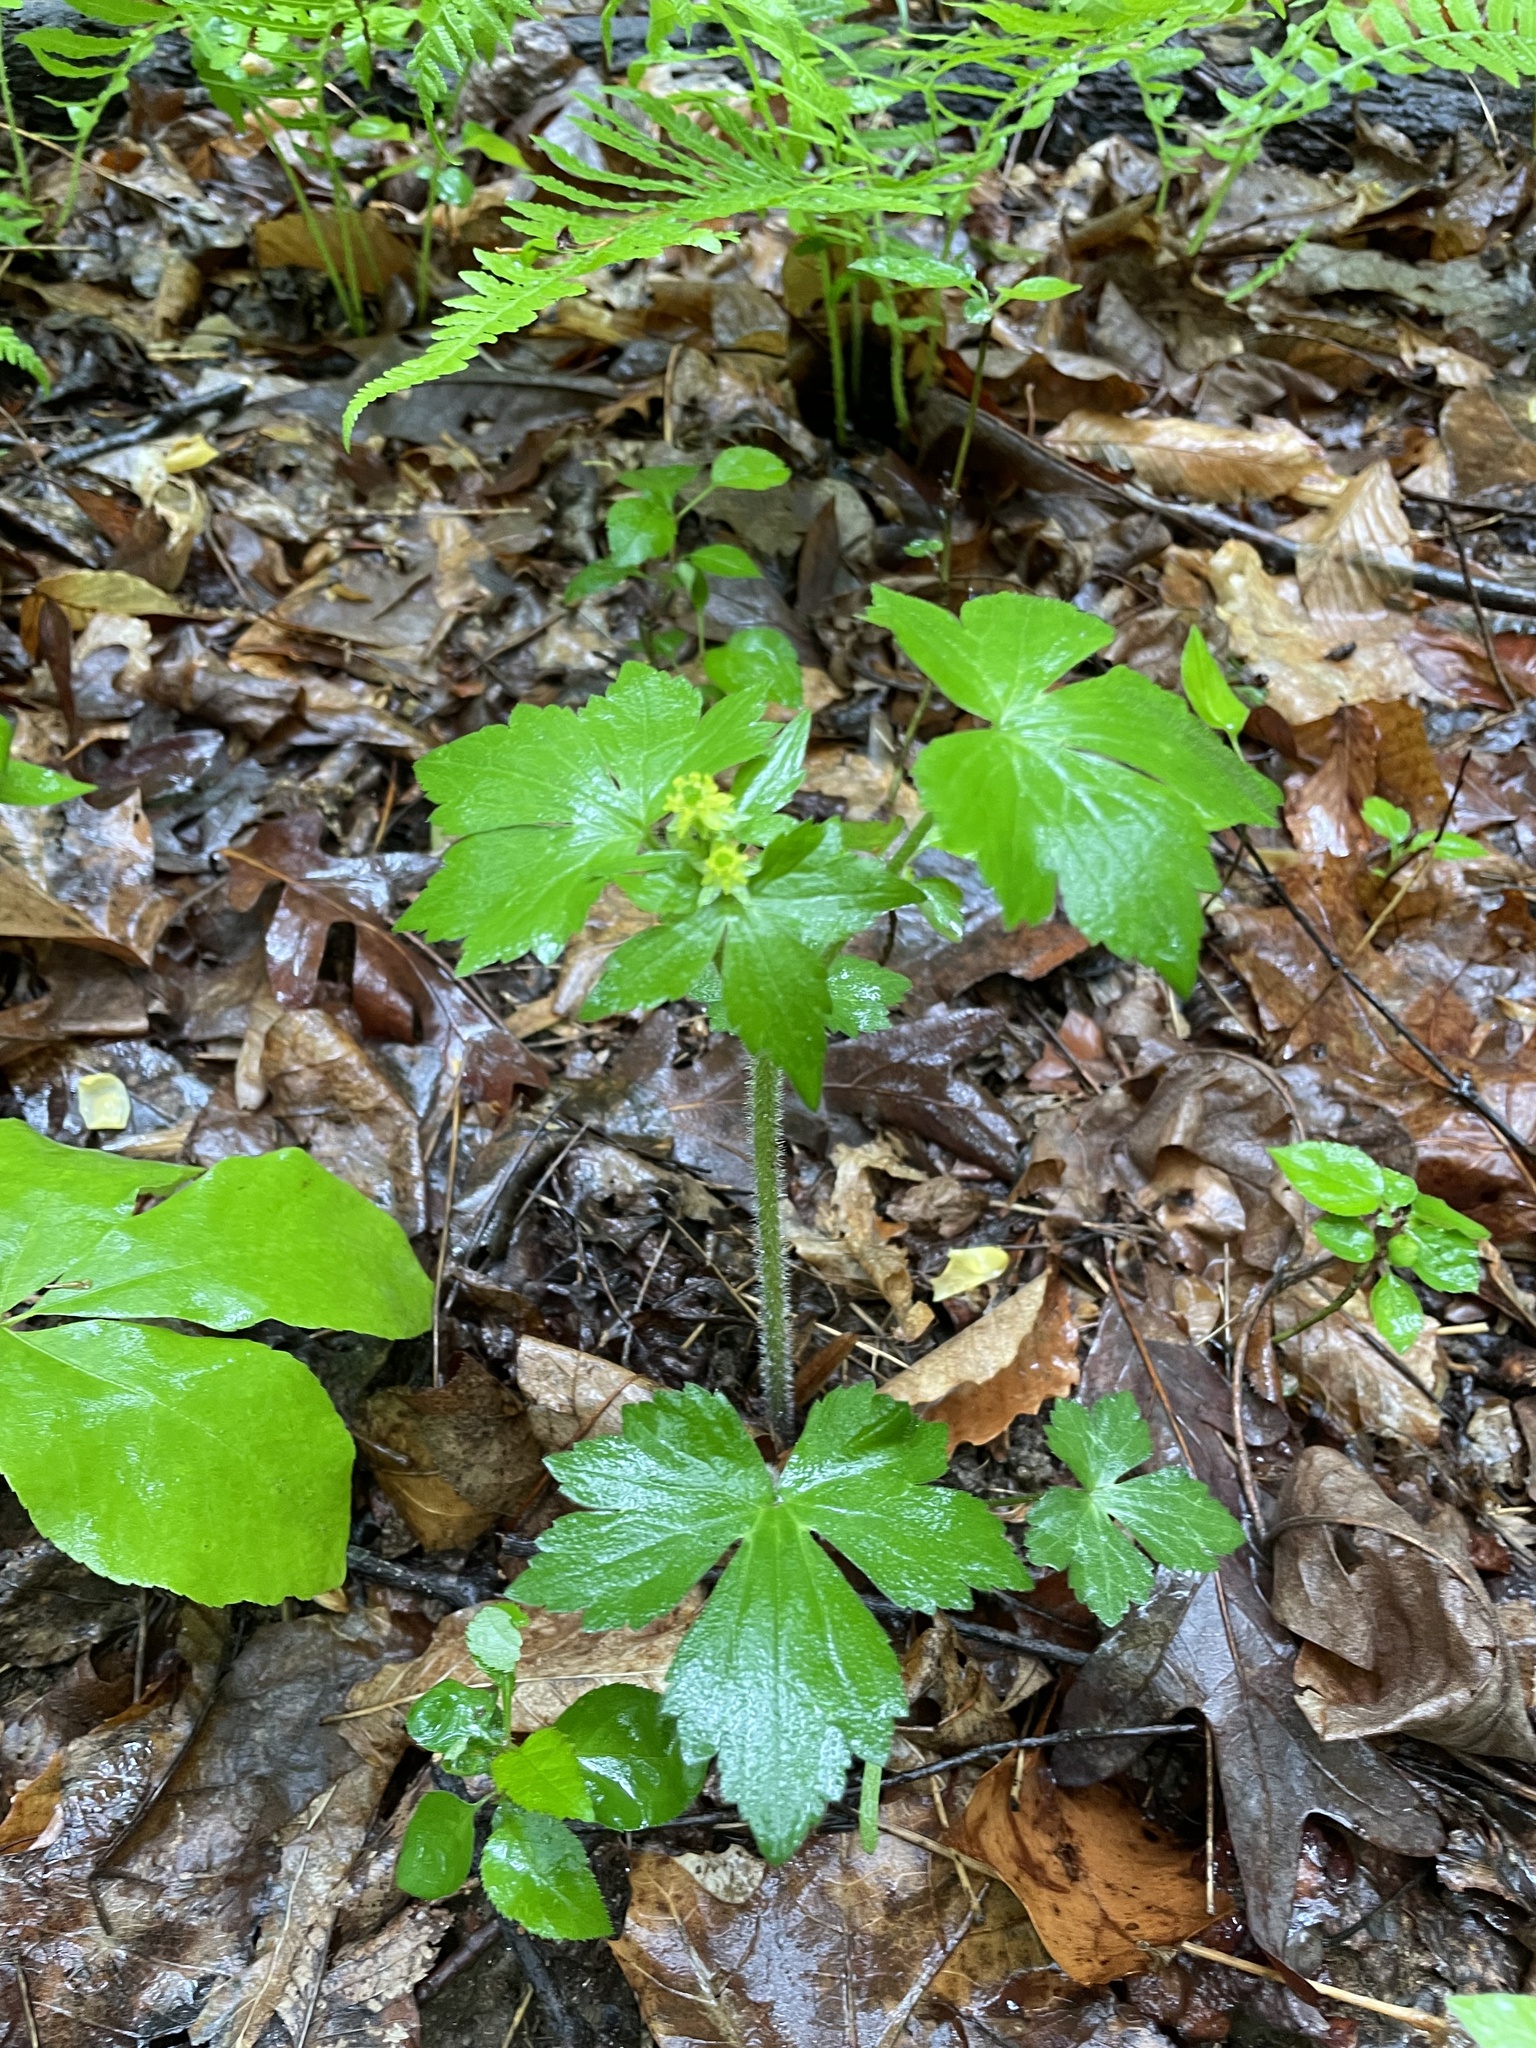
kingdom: Plantae
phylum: Tracheophyta
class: Magnoliopsida
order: Ranunculales
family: Ranunculaceae
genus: Ranunculus
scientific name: Ranunculus recurvatus
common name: Blisterwort
